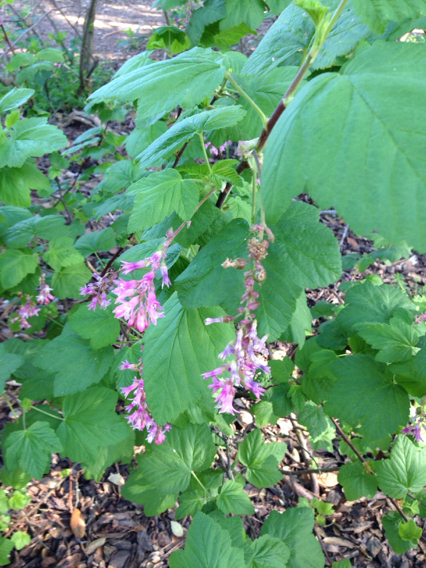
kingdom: Plantae
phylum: Tracheophyta
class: Magnoliopsida
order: Saxifragales
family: Grossulariaceae
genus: Ribes
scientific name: Ribes sanguineum
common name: Flowering currant
